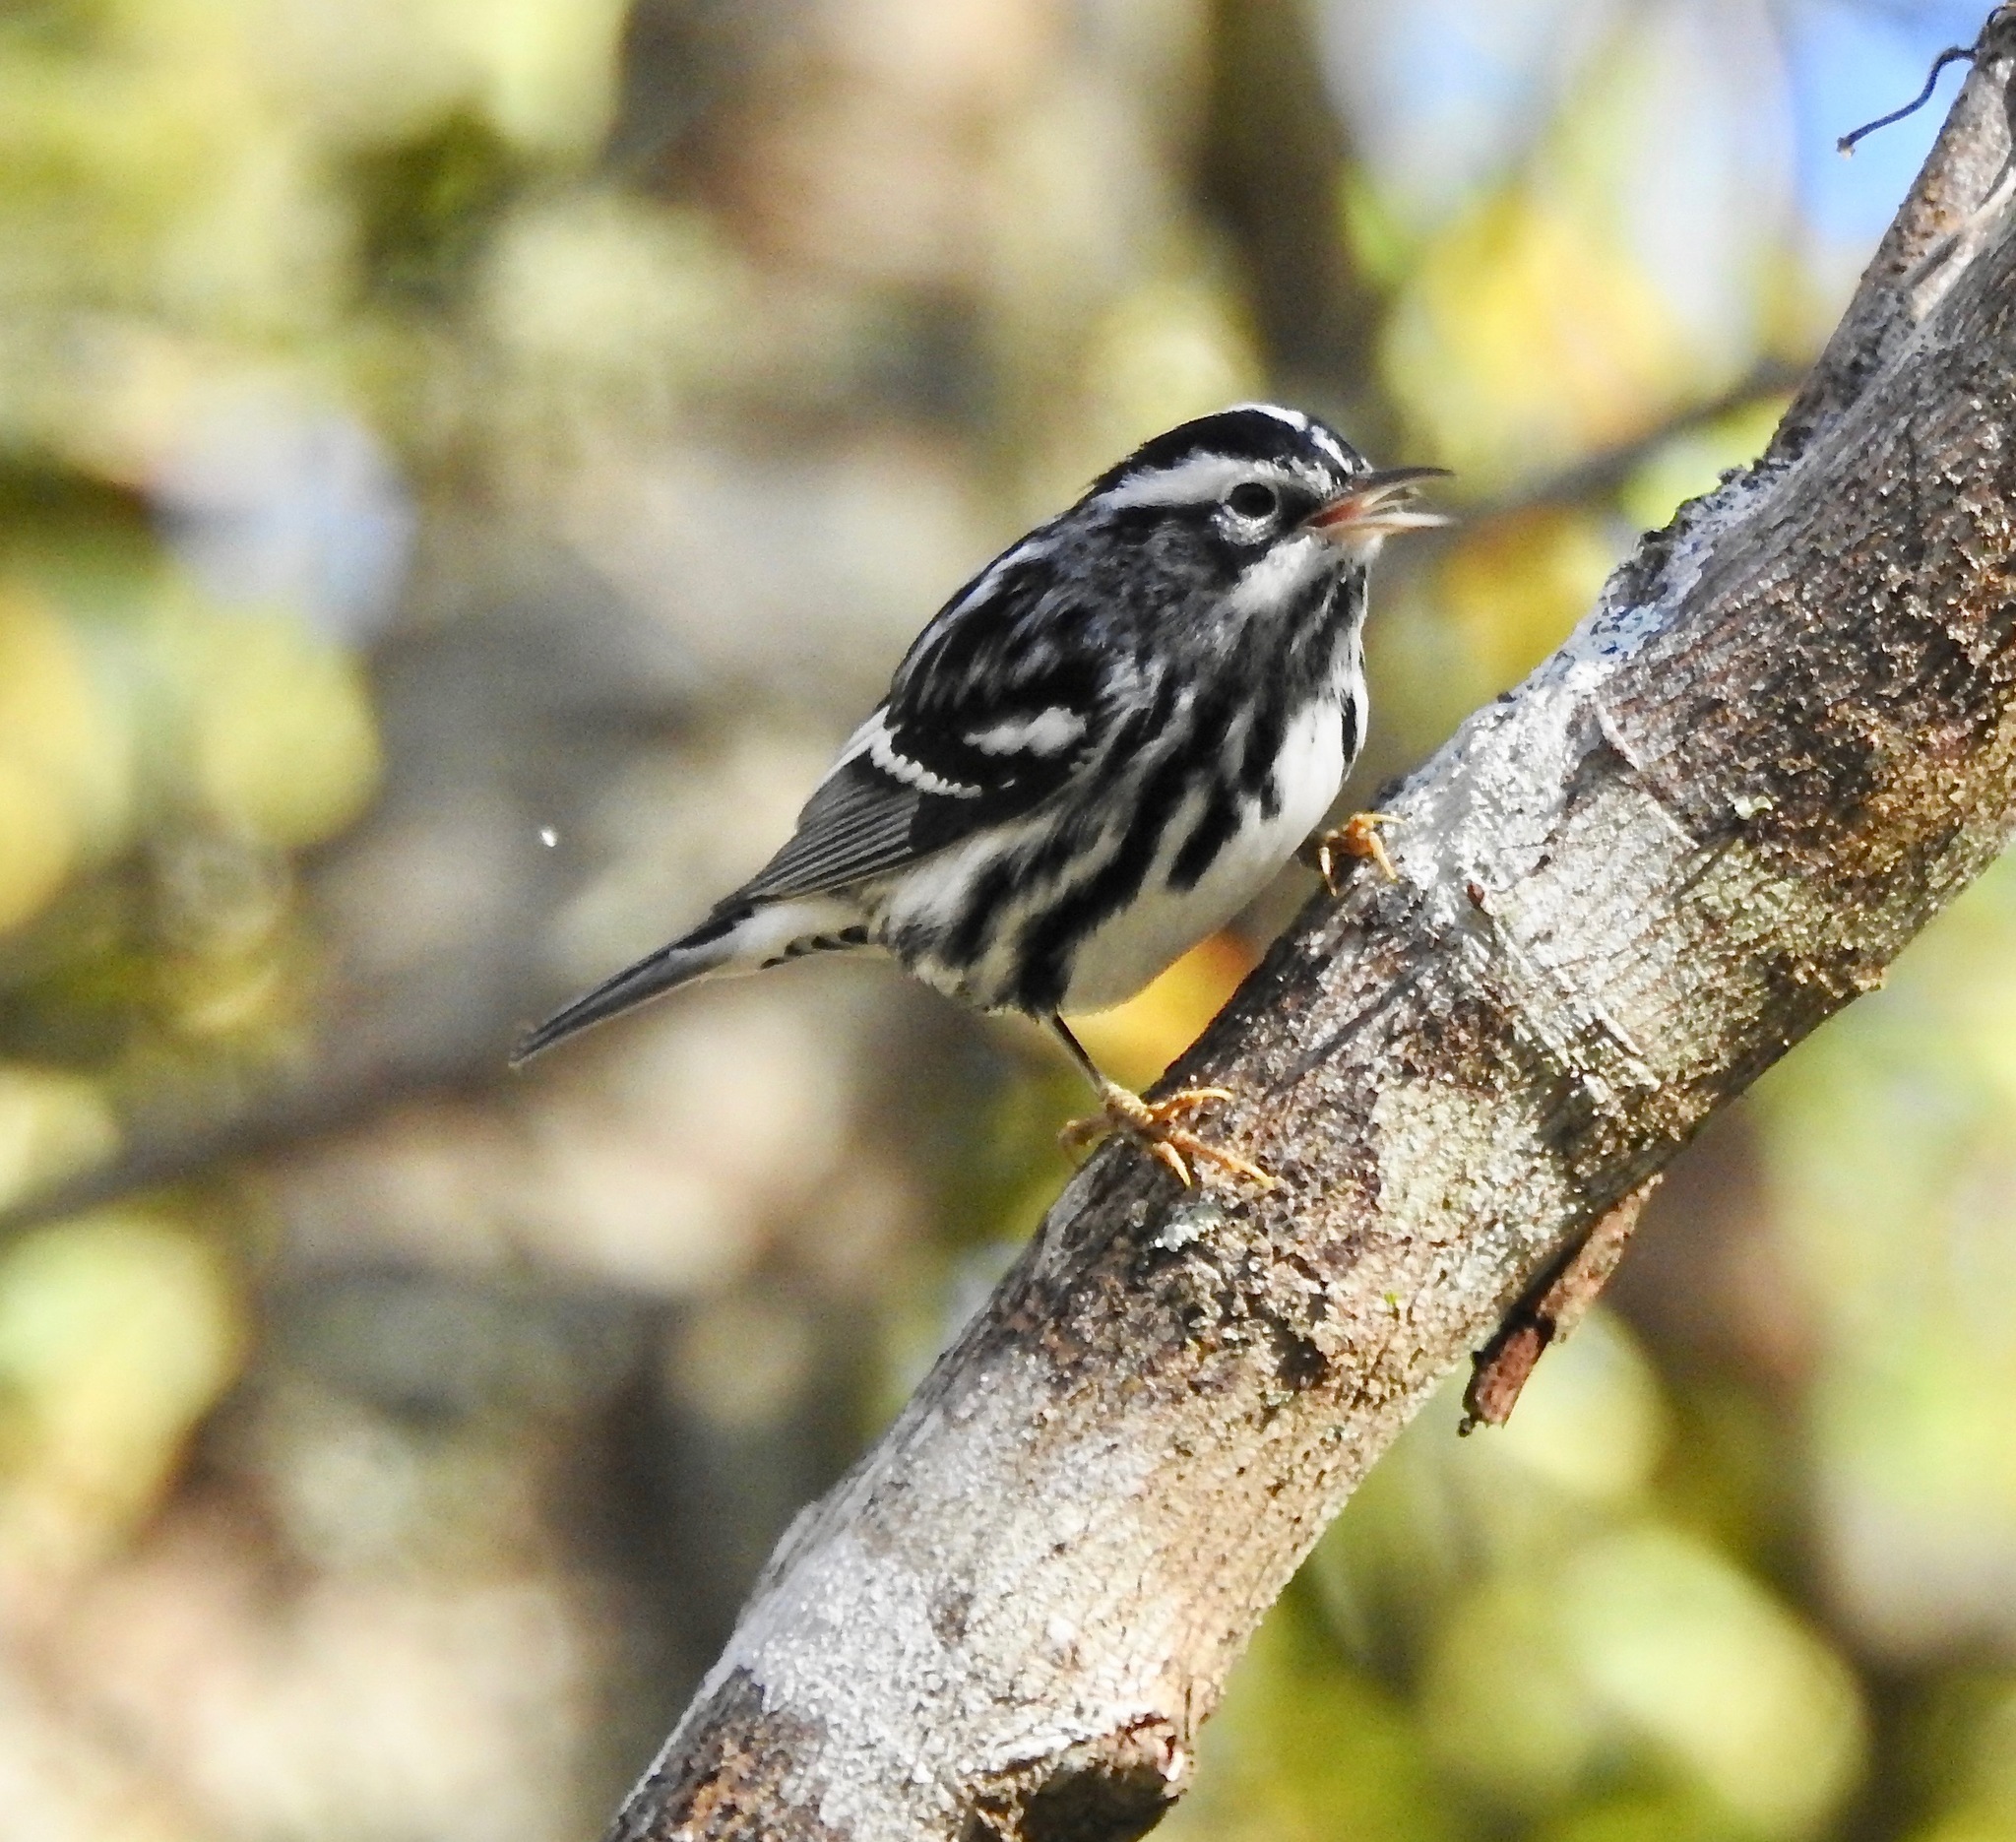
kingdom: Animalia
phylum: Chordata
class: Aves
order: Passeriformes
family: Parulidae
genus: Mniotilta
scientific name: Mniotilta varia
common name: Black-and-white warbler
